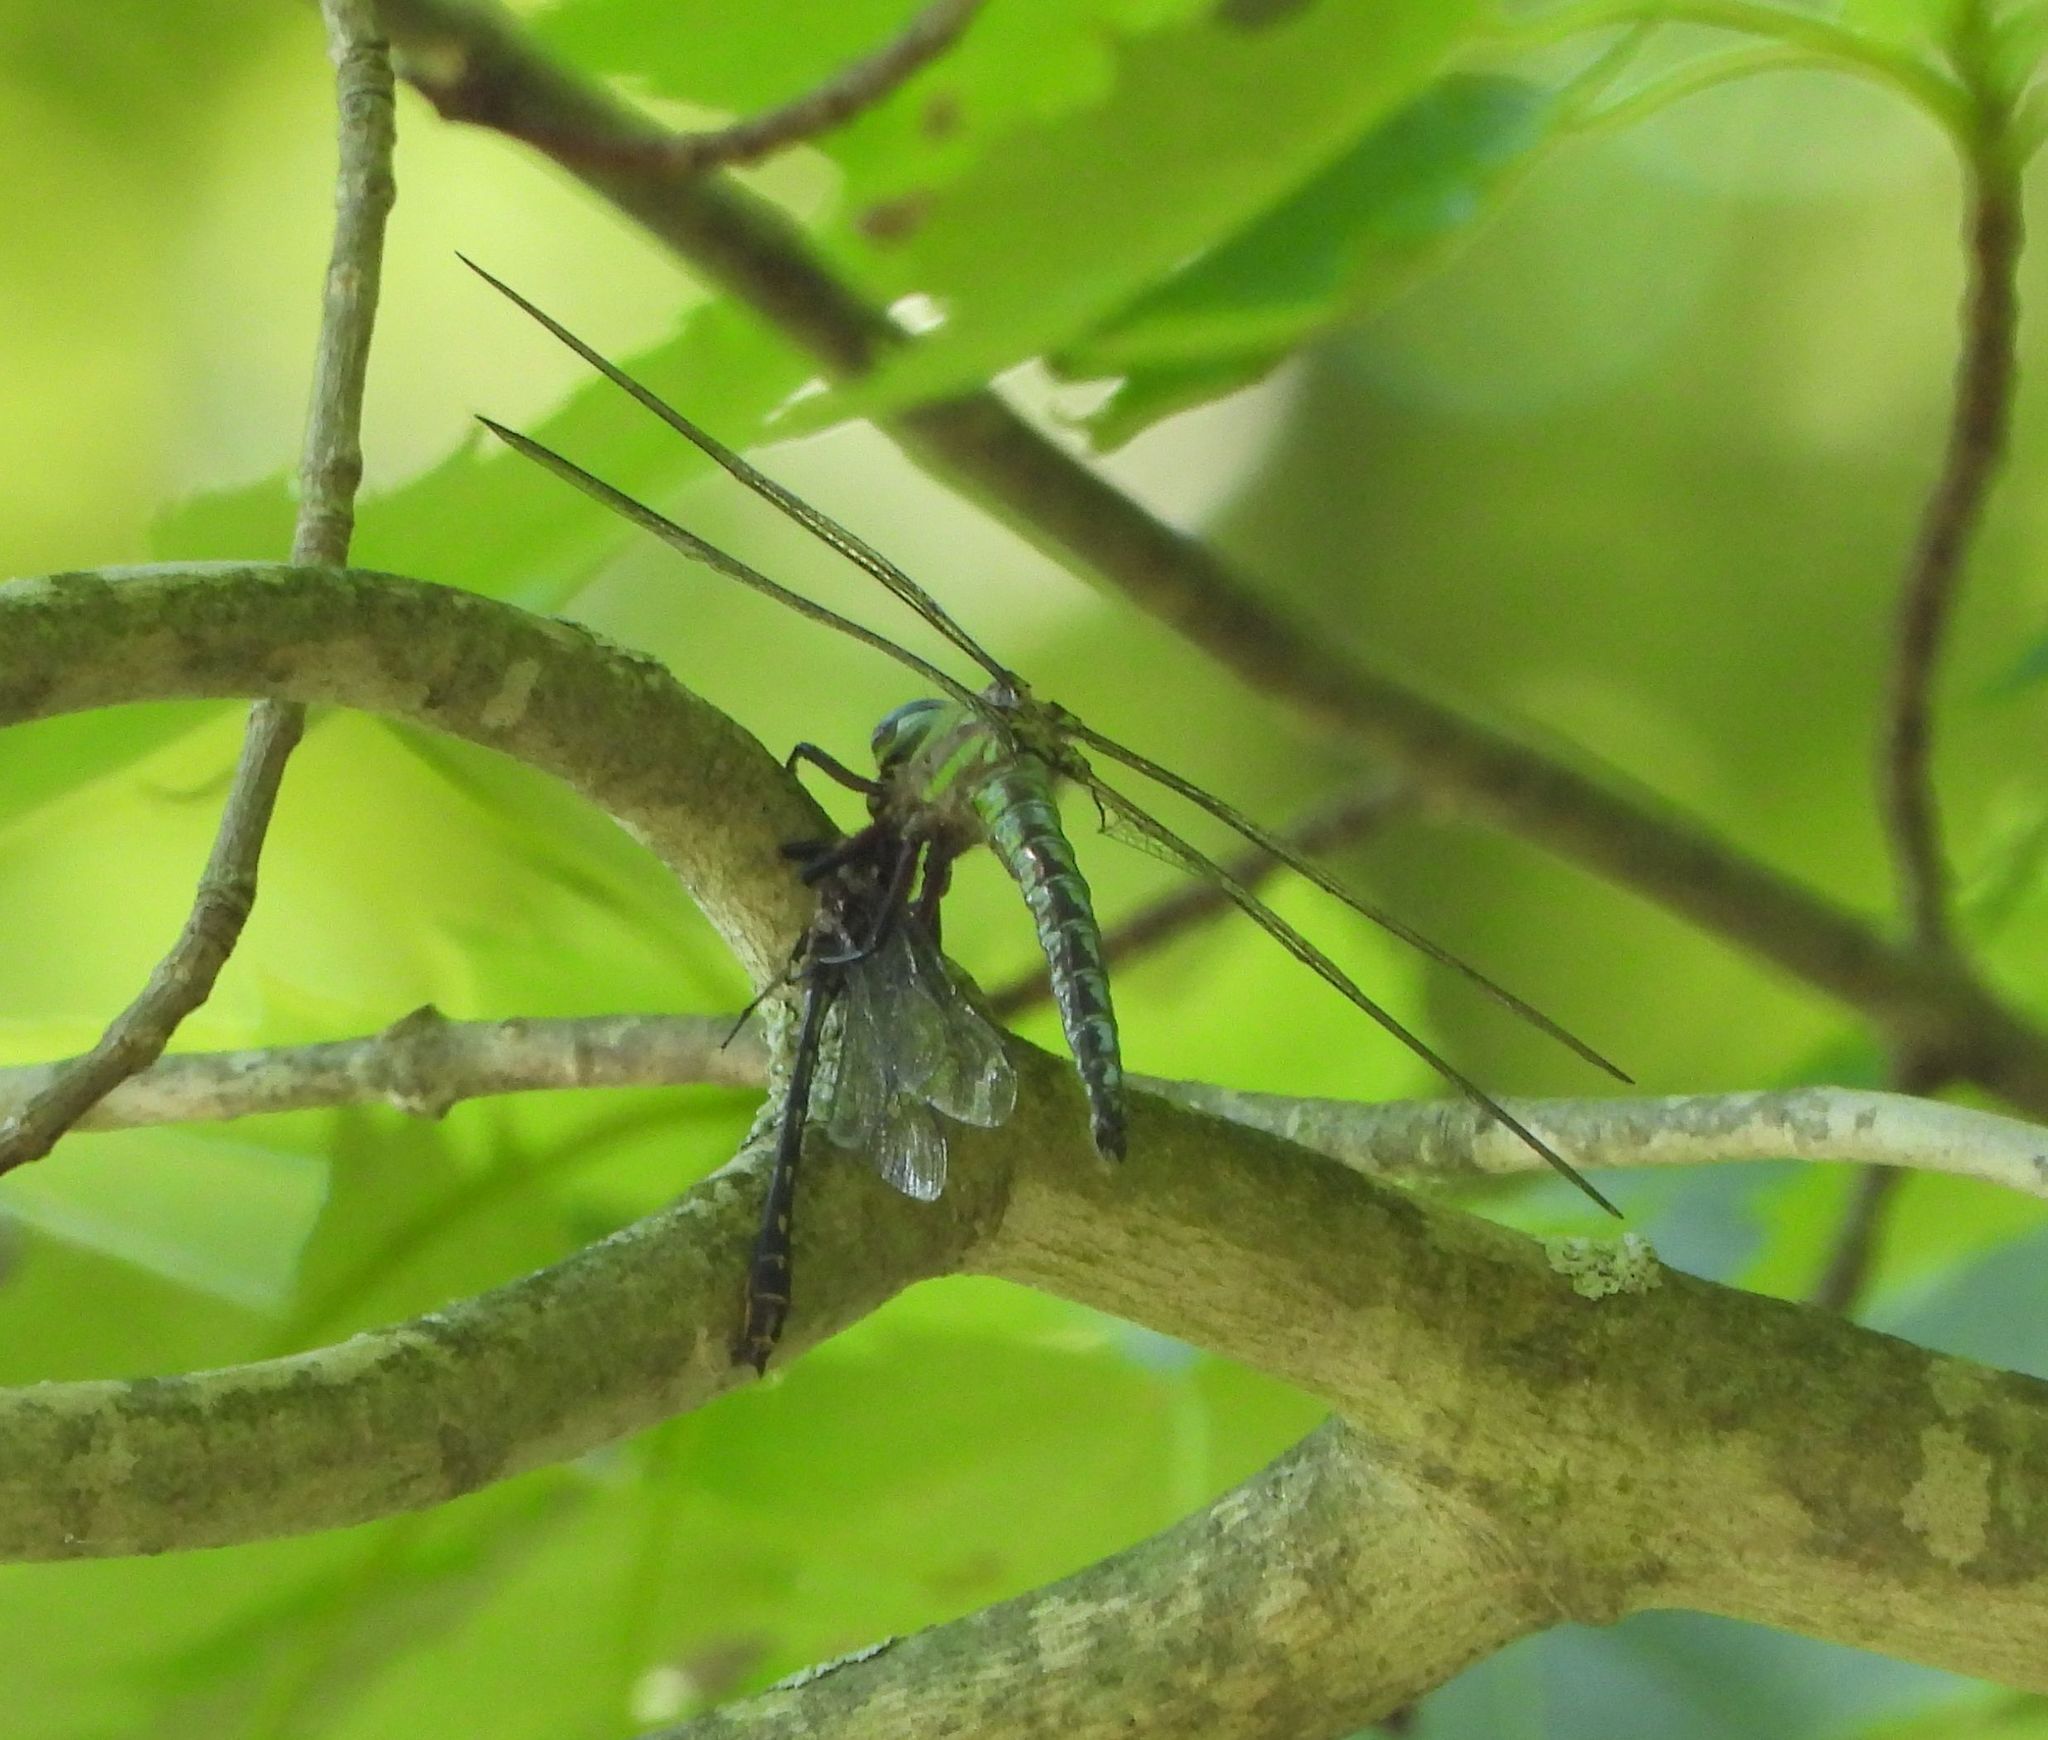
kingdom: Animalia
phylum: Arthropoda
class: Insecta
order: Odonata
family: Aeshnidae
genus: Nasiaeschna
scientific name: Nasiaeschna pentacantha
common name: Cyrano darner
